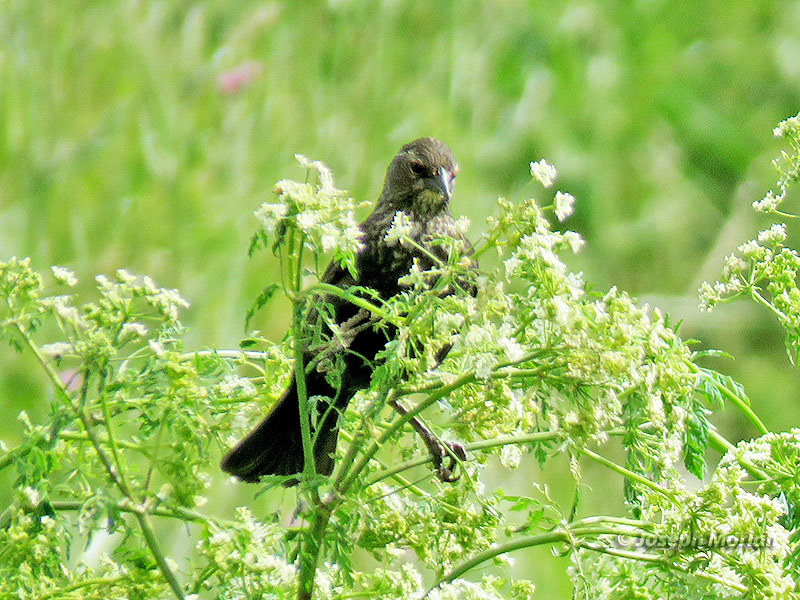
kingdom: Animalia
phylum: Chordata
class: Aves
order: Passeriformes
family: Icteridae
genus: Agelaius
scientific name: Agelaius phoeniceus
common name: Red-winged blackbird
